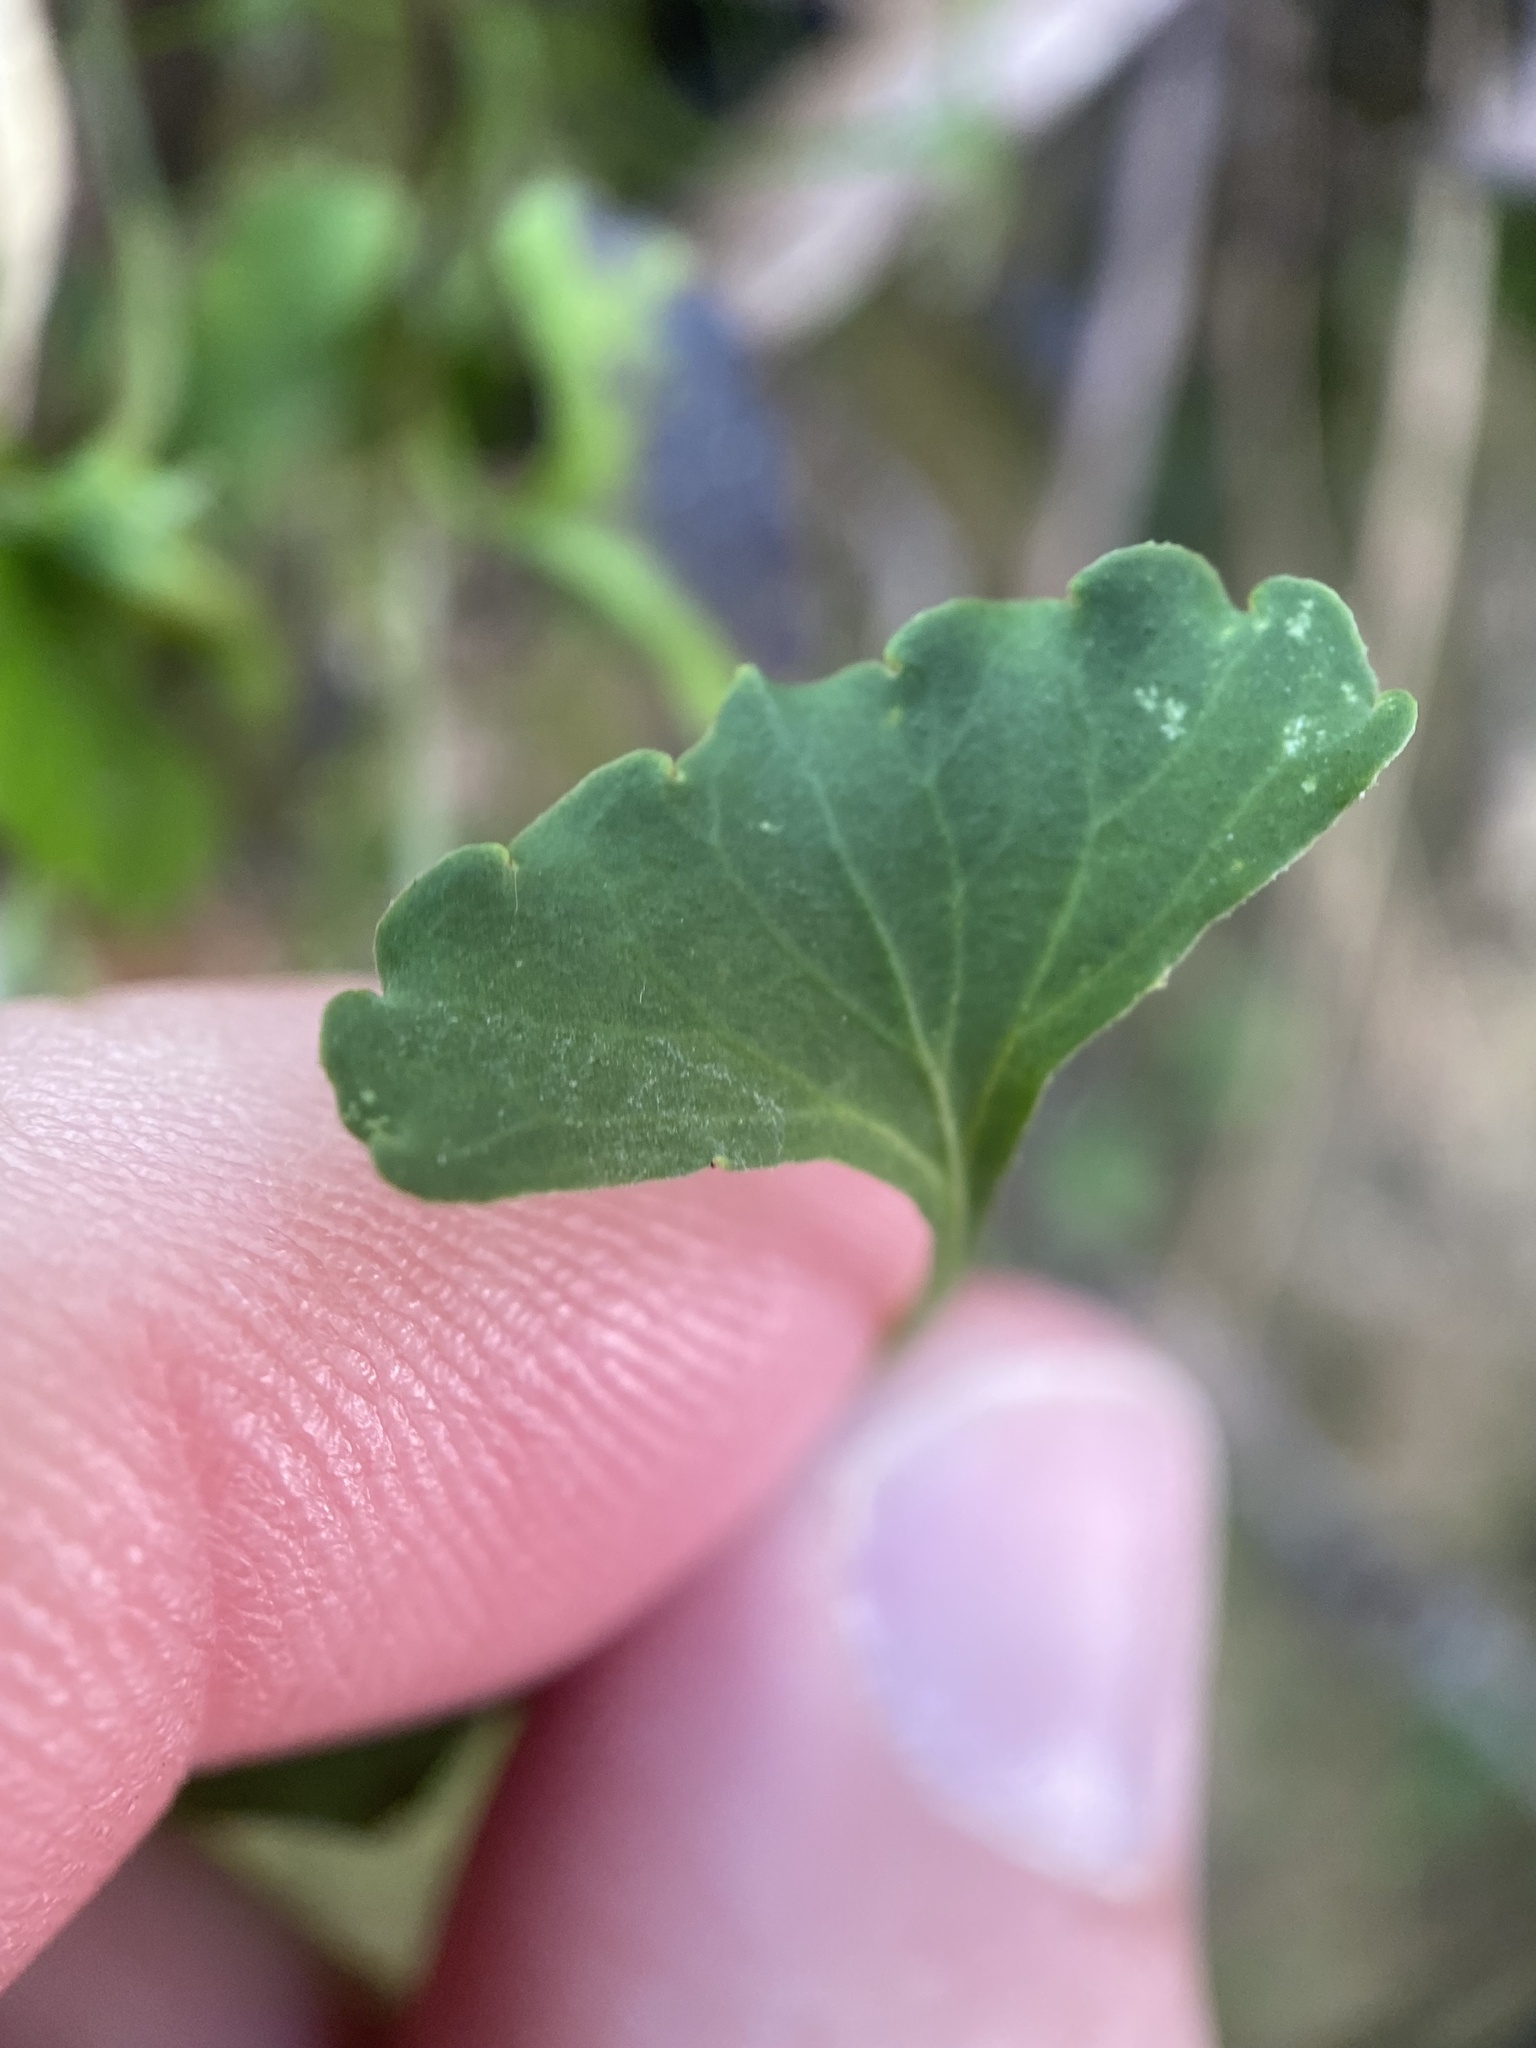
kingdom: Plantae
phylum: Tracheophyta
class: Magnoliopsida
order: Malpighiales
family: Violaceae
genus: Viola
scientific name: Viola silicestris
